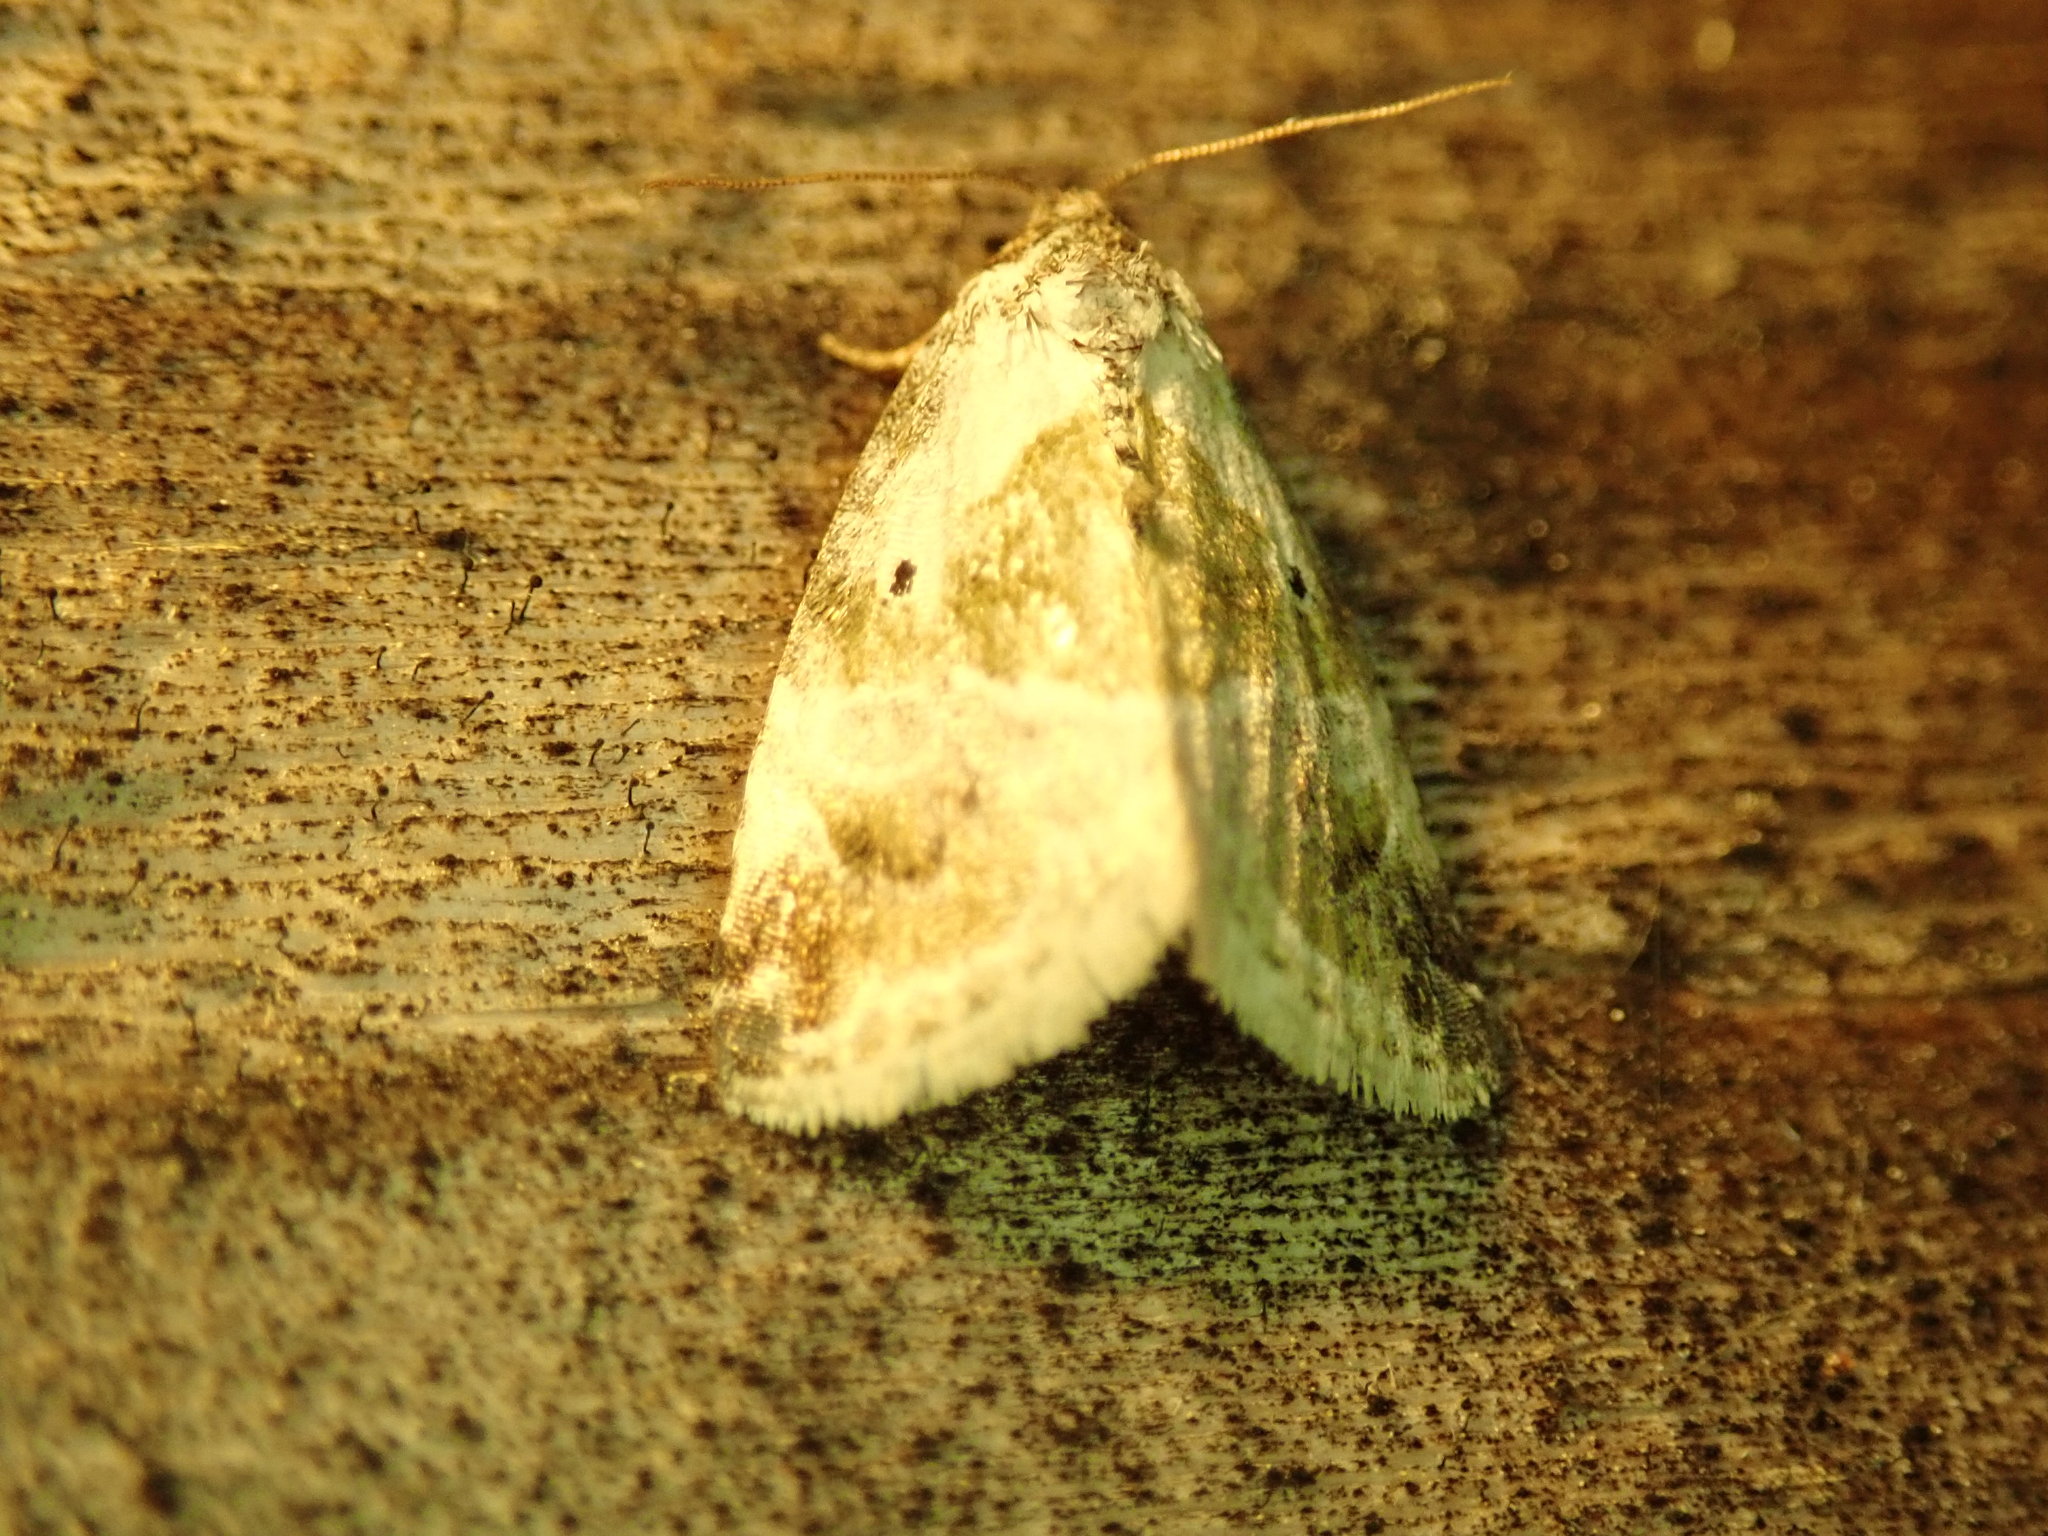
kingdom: Animalia
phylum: Arthropoda
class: Insecta
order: Lepidoptera
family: Noctuidae
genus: Maliattha
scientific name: Maliattha synochitis
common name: Black-dotted glyph
